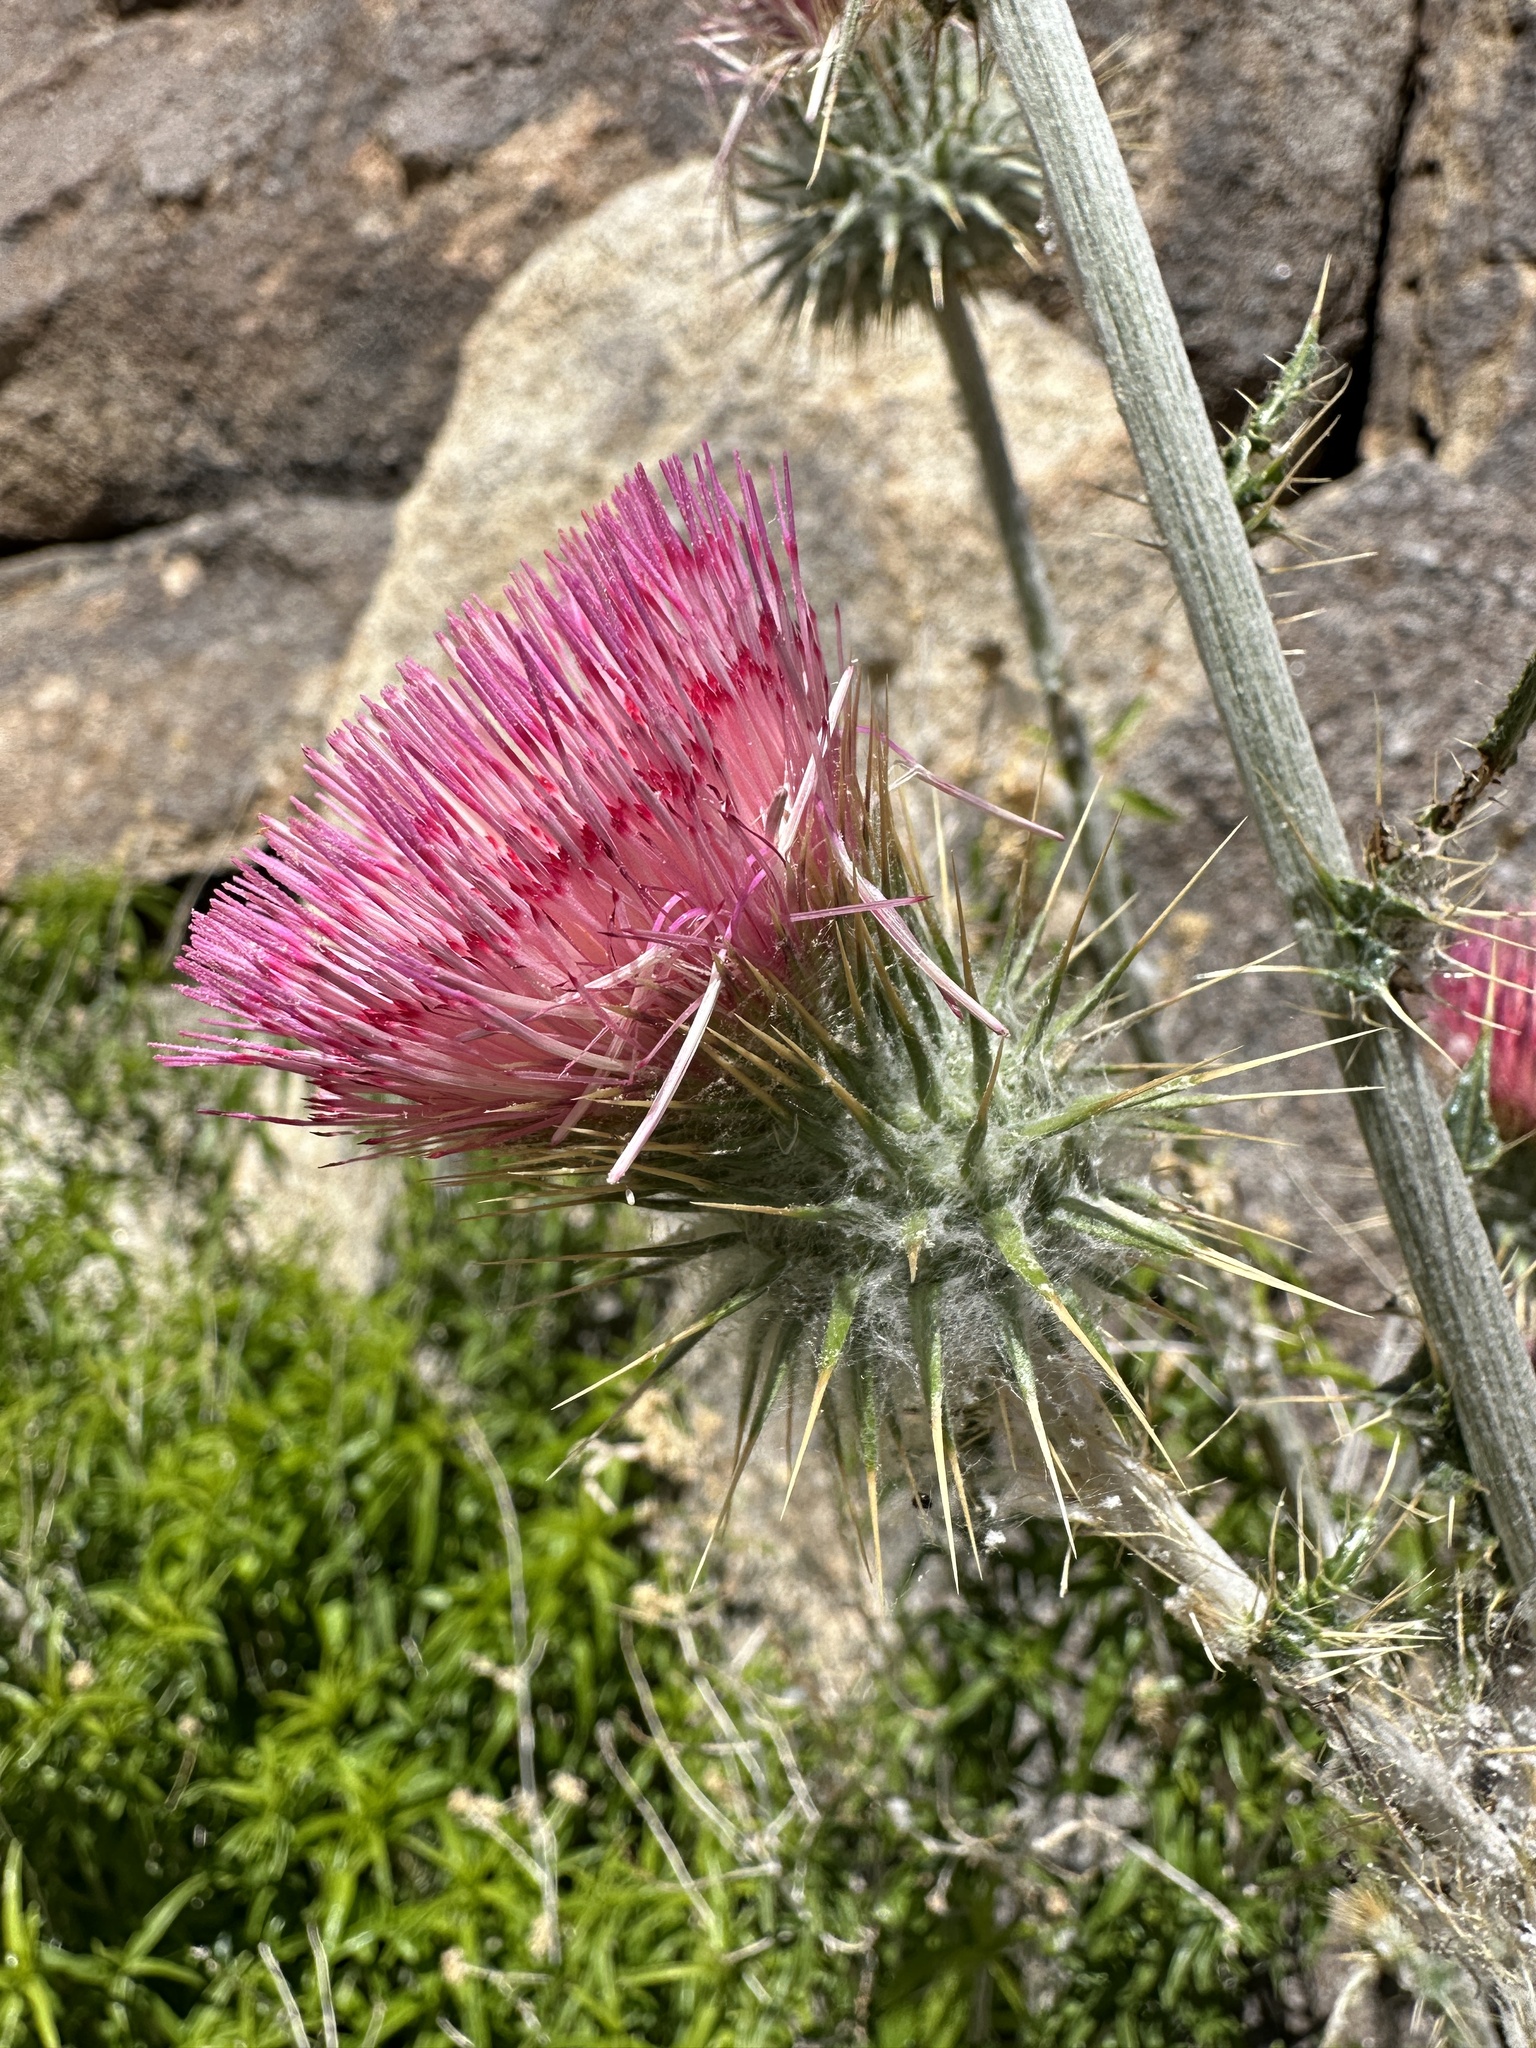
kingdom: Plantae
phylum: Tracheophyta
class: Magnoliopsida
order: Asterales
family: Asteraceae
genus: Cirsium
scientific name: Cirsium occidentale
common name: Western thistle
